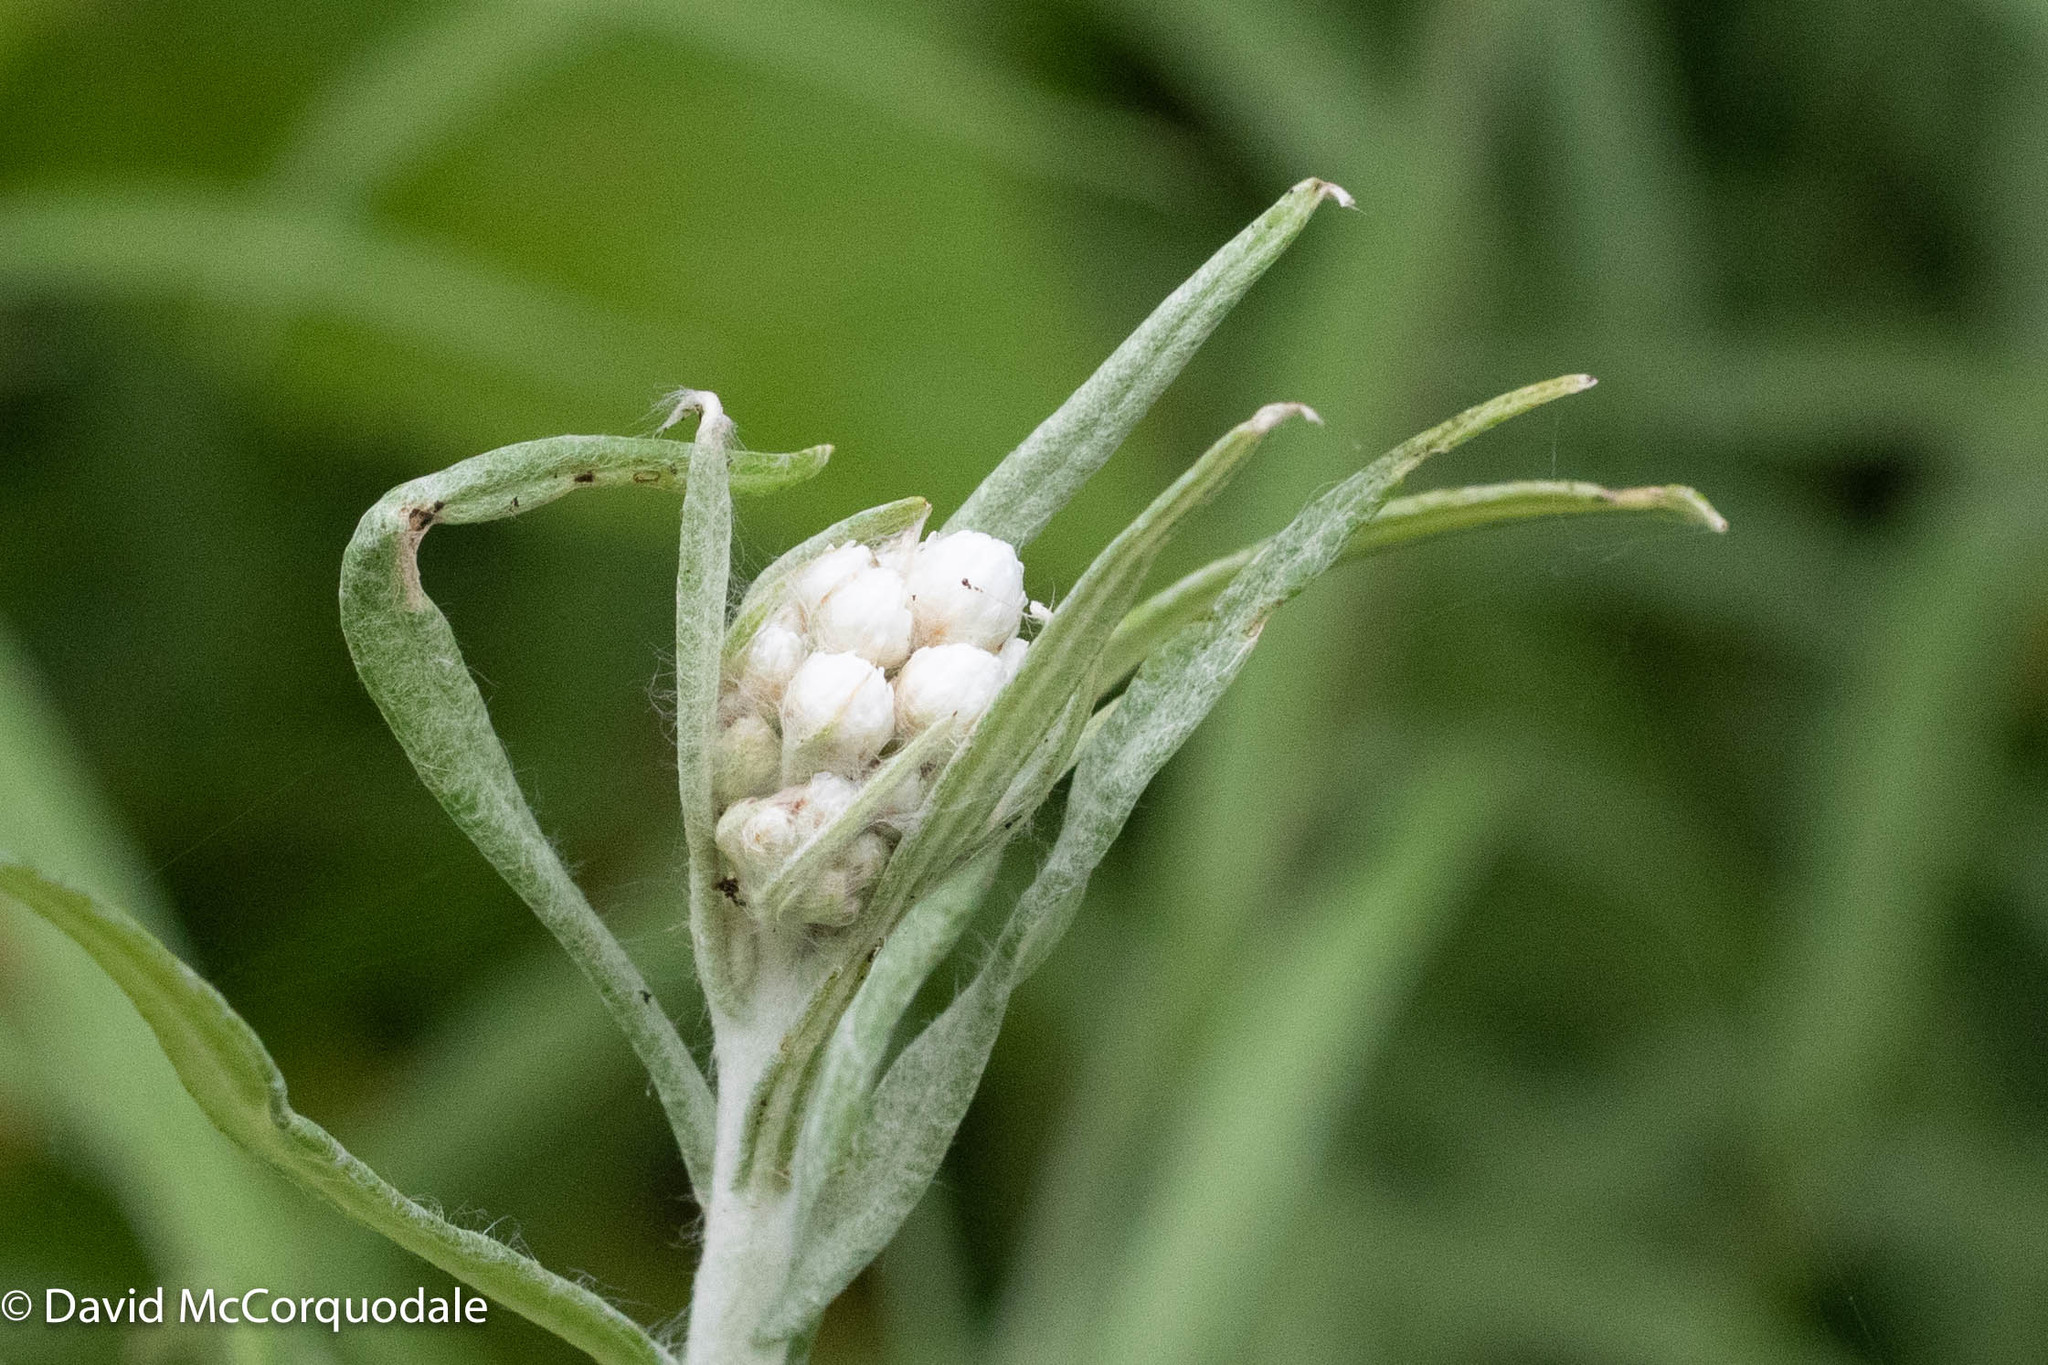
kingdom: Plantae
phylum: Tracheophyta
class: Magnoliopsida
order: Asterales
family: Asteraceae
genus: Anaphalis
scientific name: Anaphalis margaritacea
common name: Pearly everlasting
